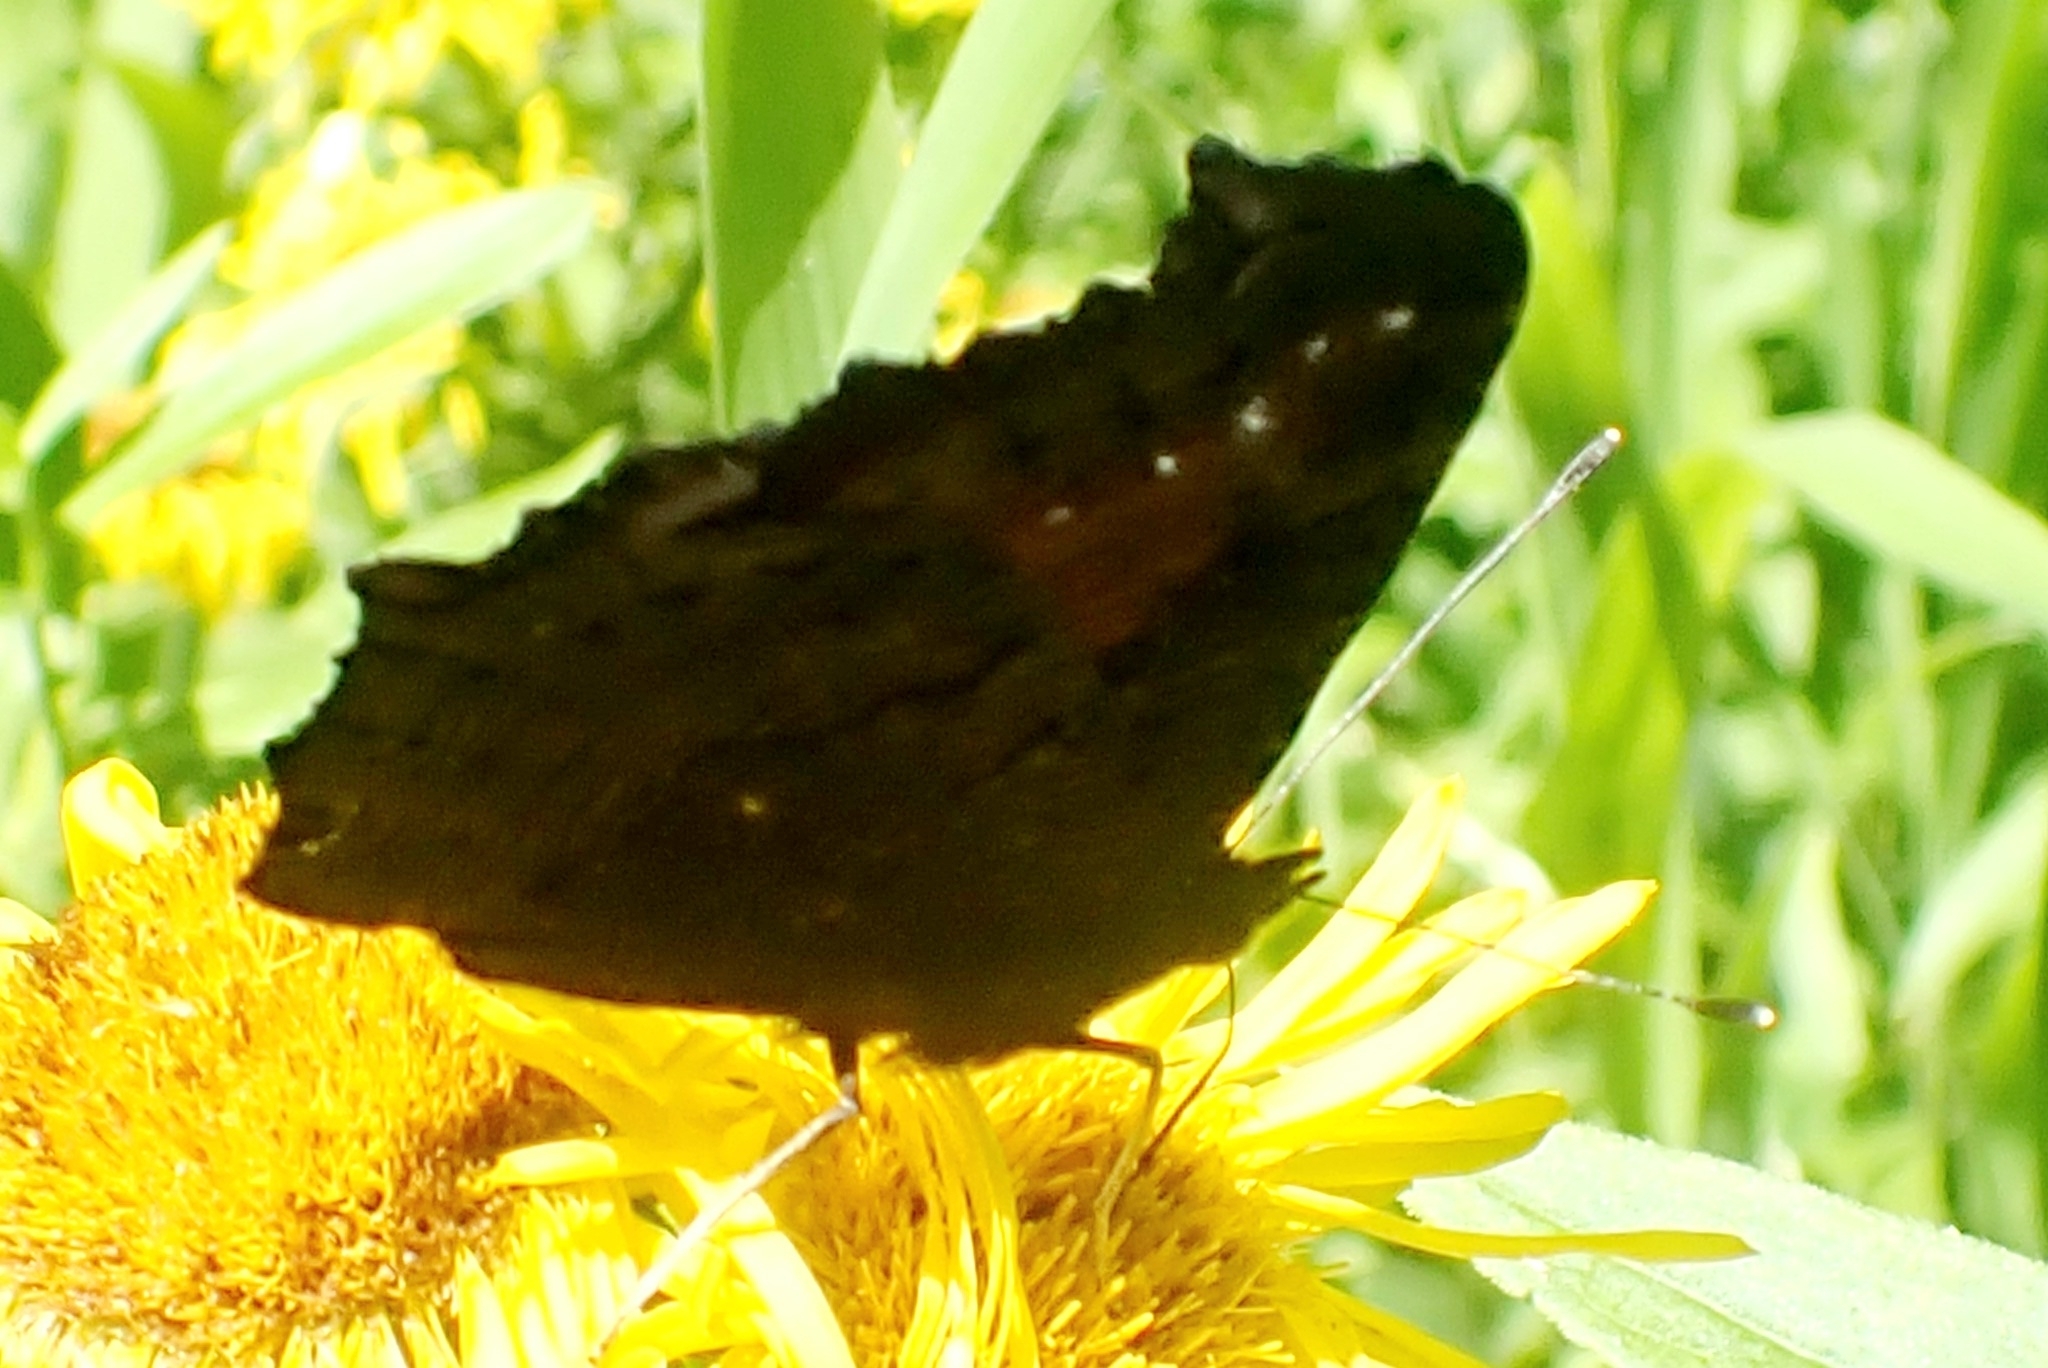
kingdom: Animalia
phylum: Arthropoda
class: Insecta
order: Lepidoptera
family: Nymphalidae
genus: Aglais
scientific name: Aglais io
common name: Peacock
